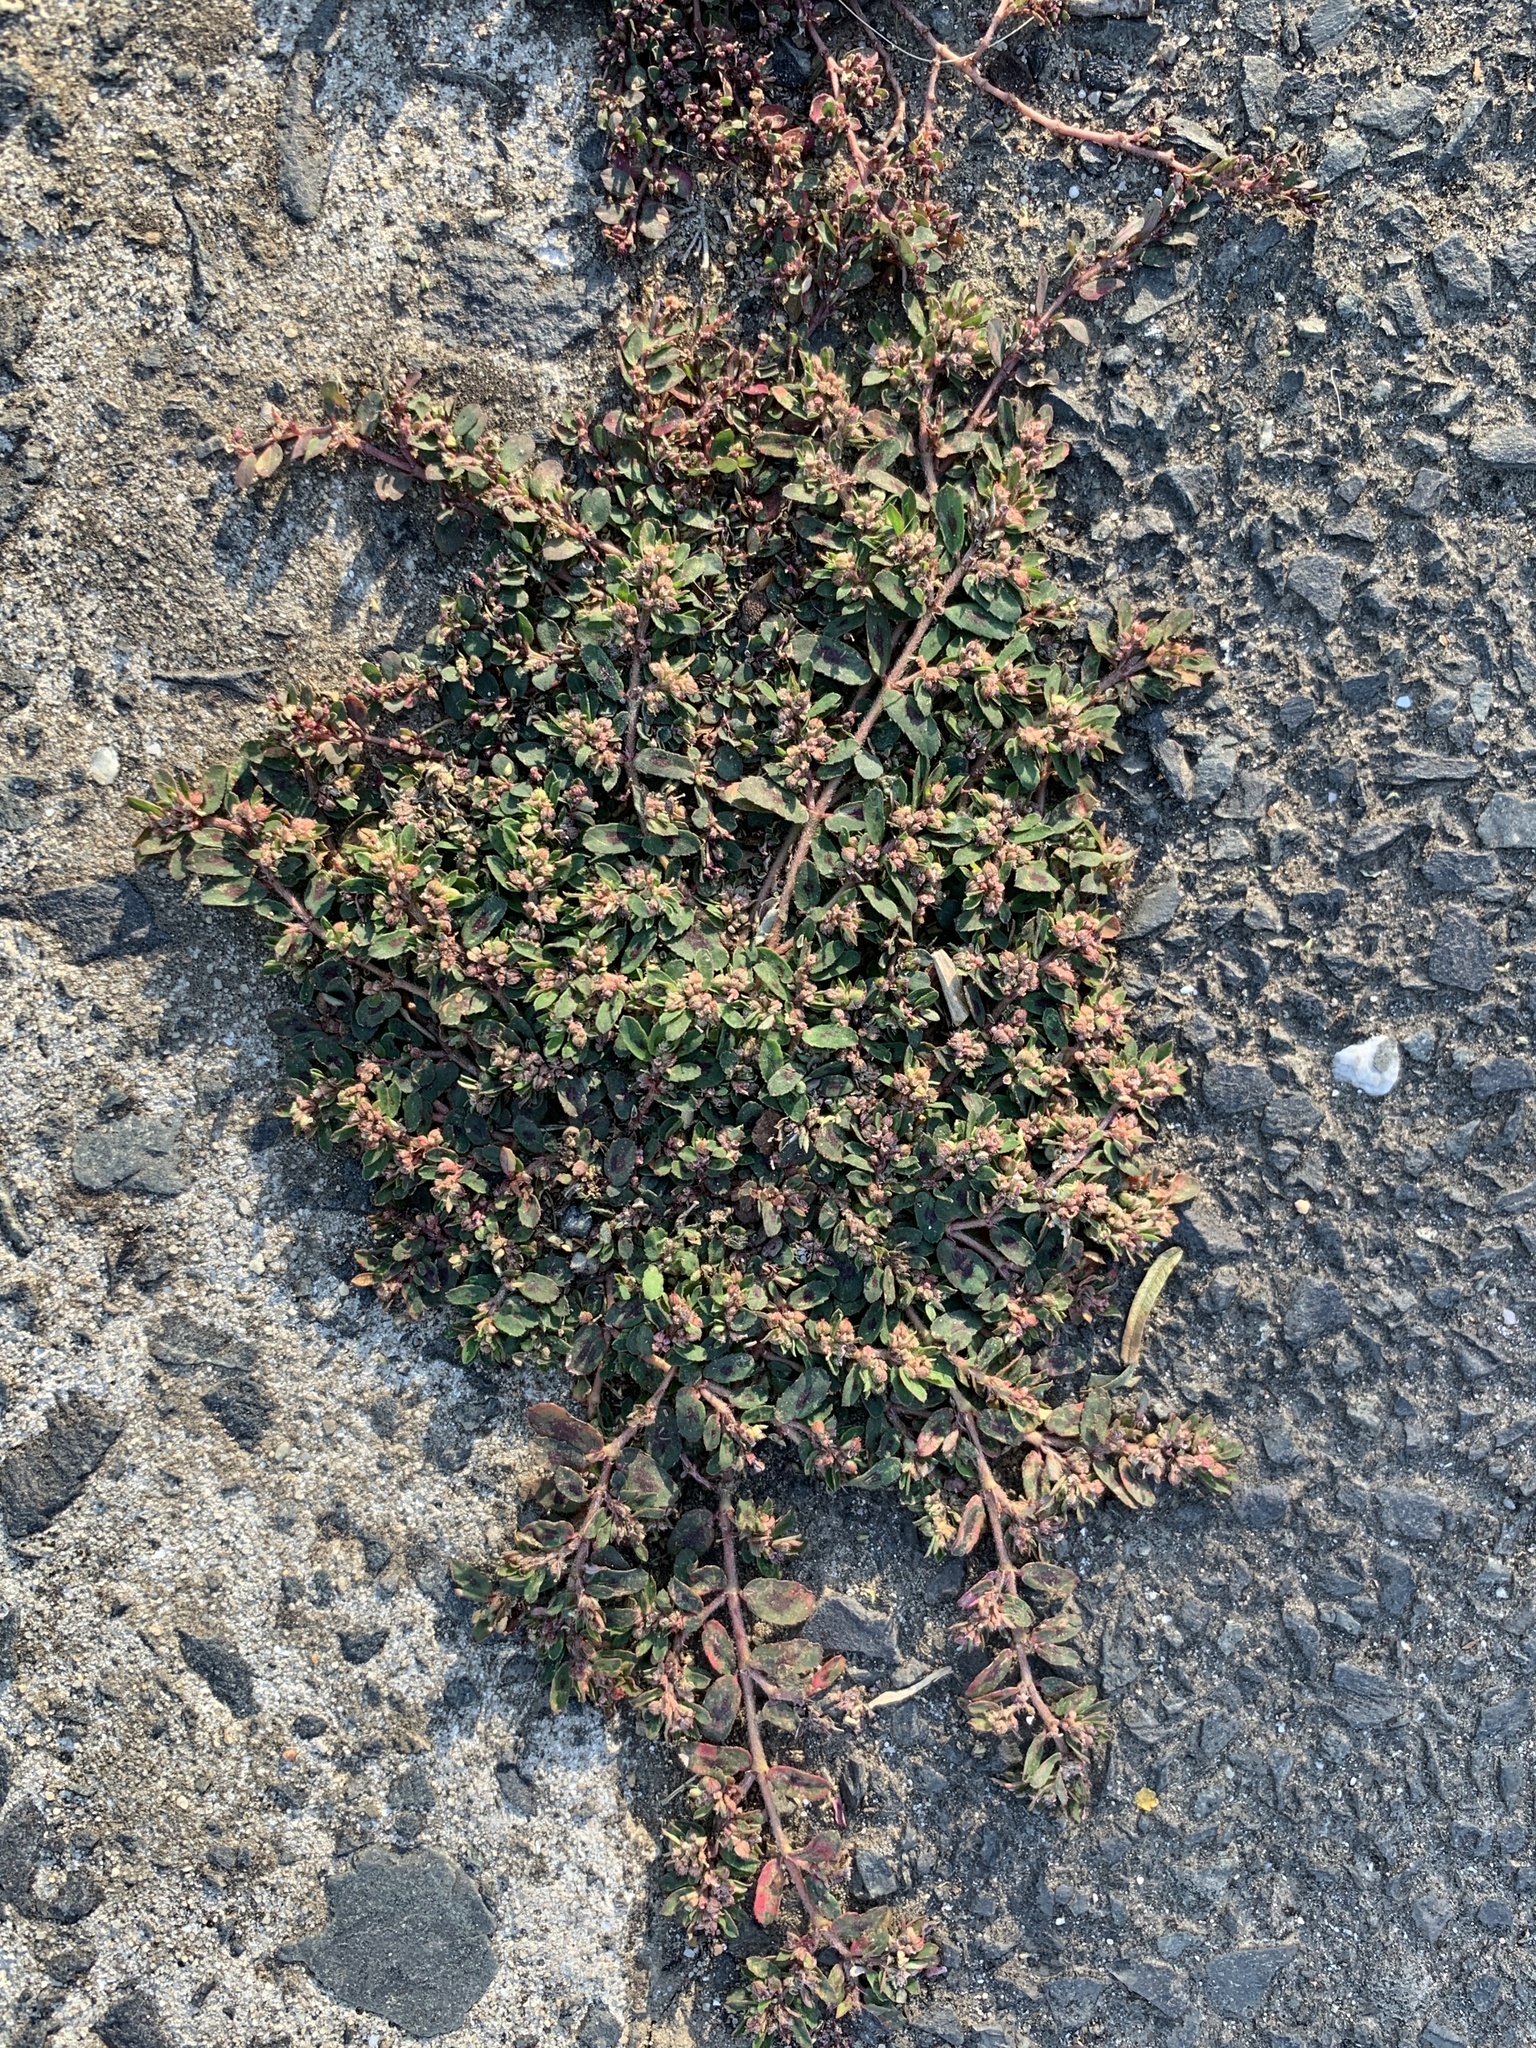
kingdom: Plantae
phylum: Tracheophyta
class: Magnoliopsida
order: Malpighiales
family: Euphorbiaceae
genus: Euphorbia
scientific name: Euphorbia maculata
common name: Spotted spurge
